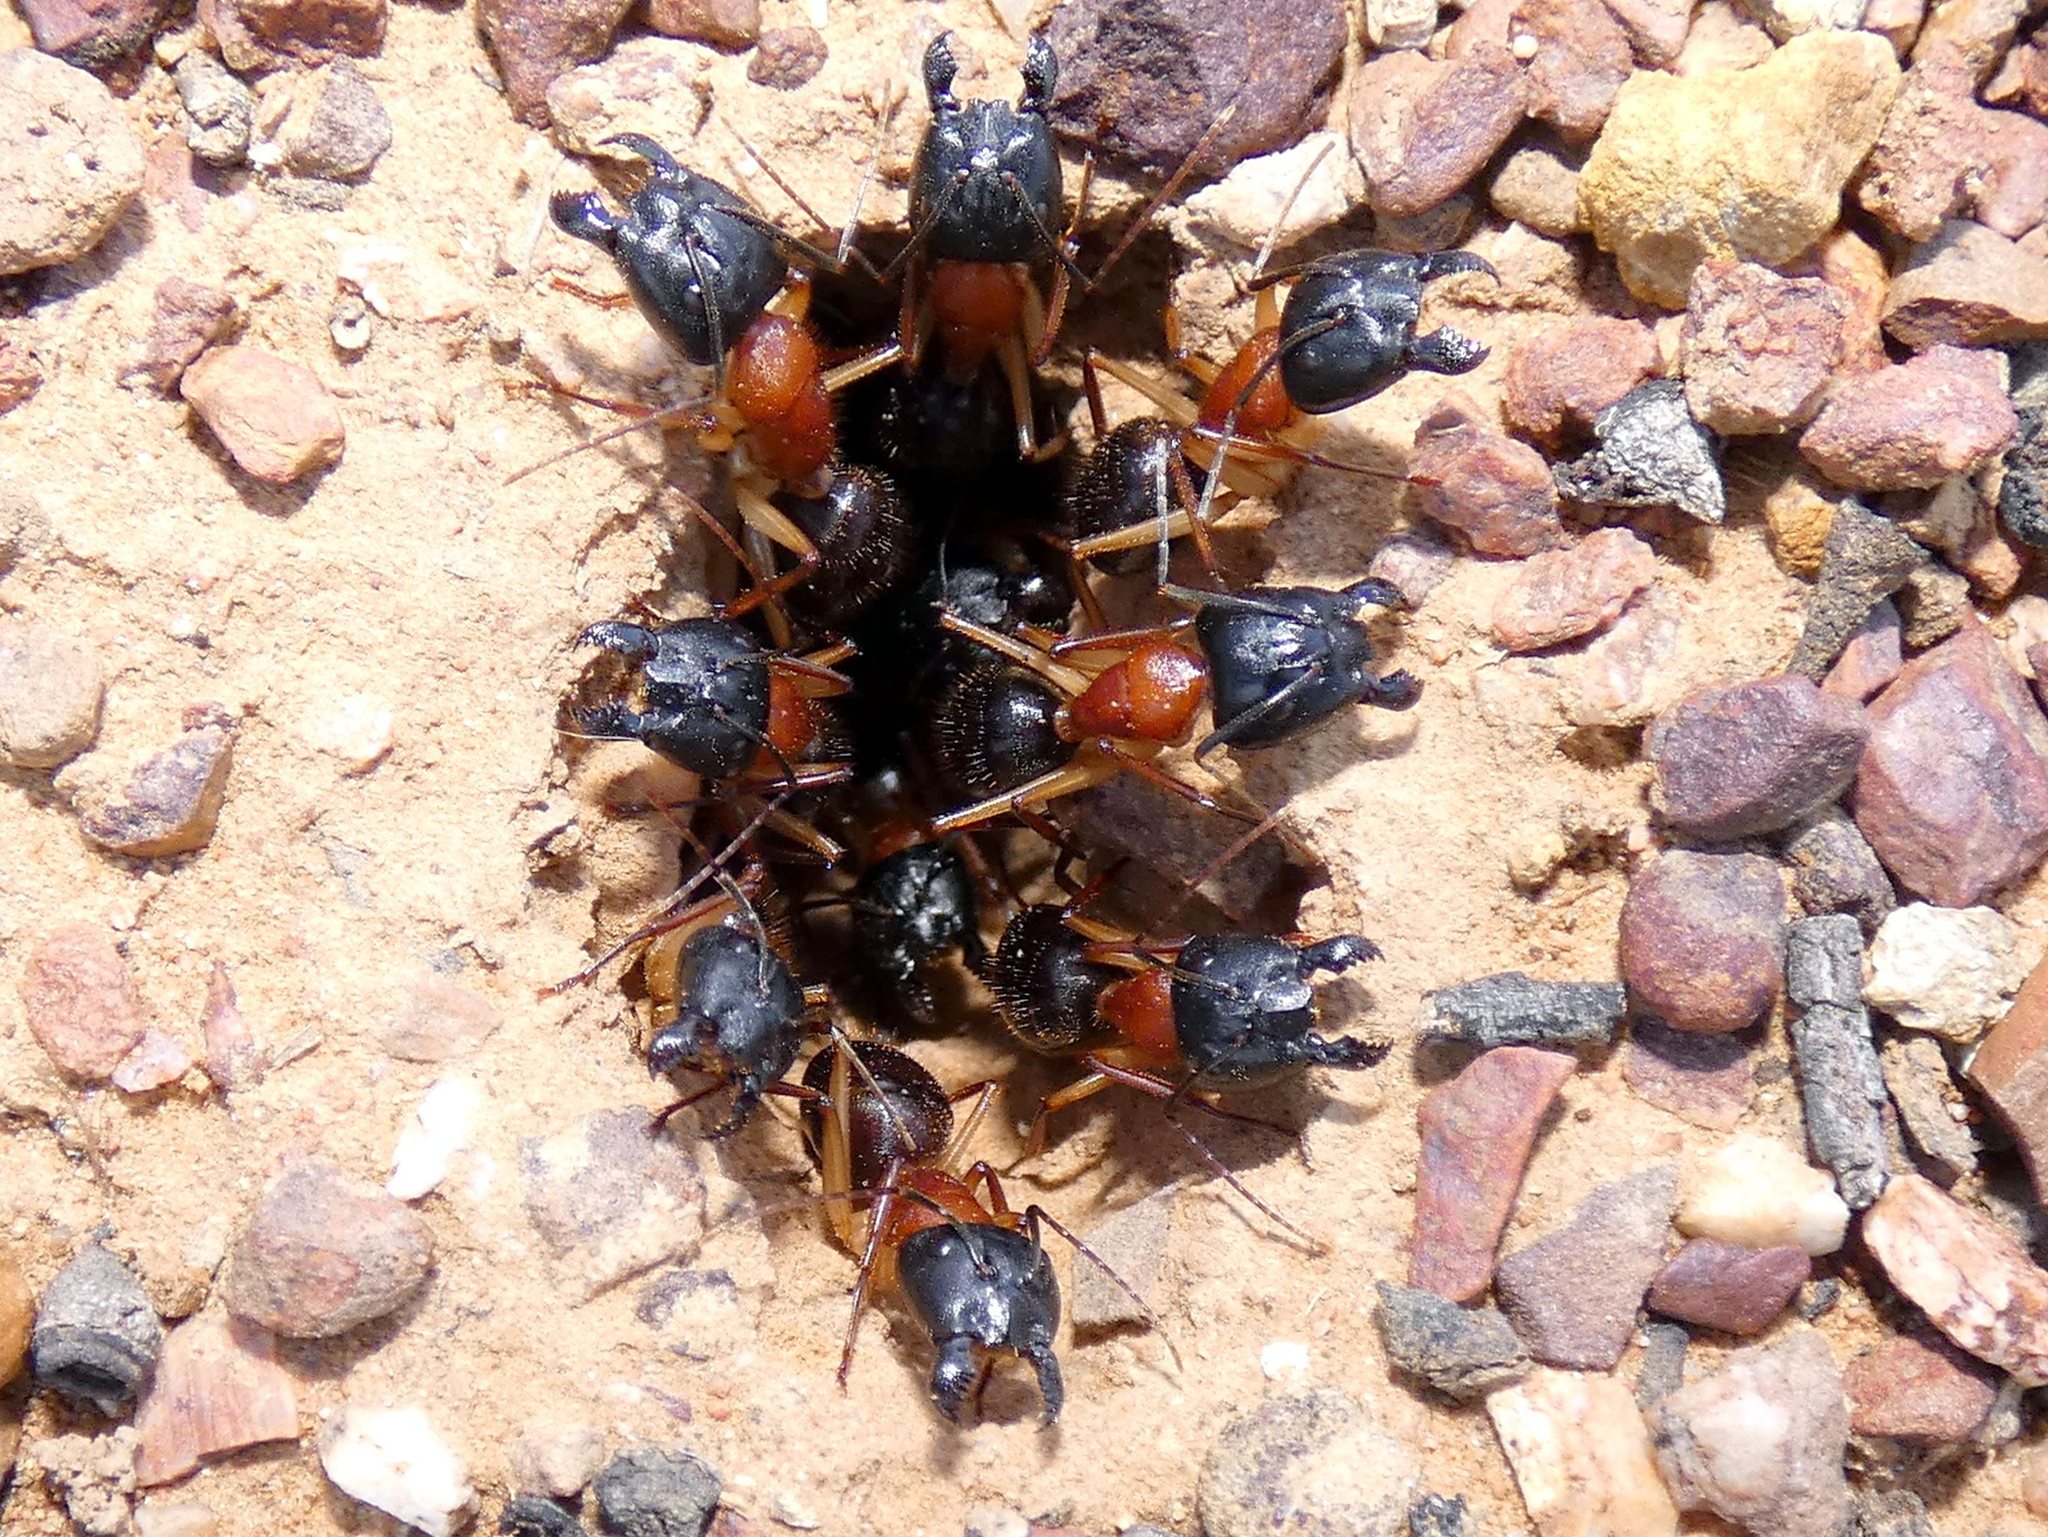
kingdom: Animalia
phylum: Arthropoda
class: Insecta
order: Hymenoptera
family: Formicidae
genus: Camponotus
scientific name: Camponotus nigriceps
